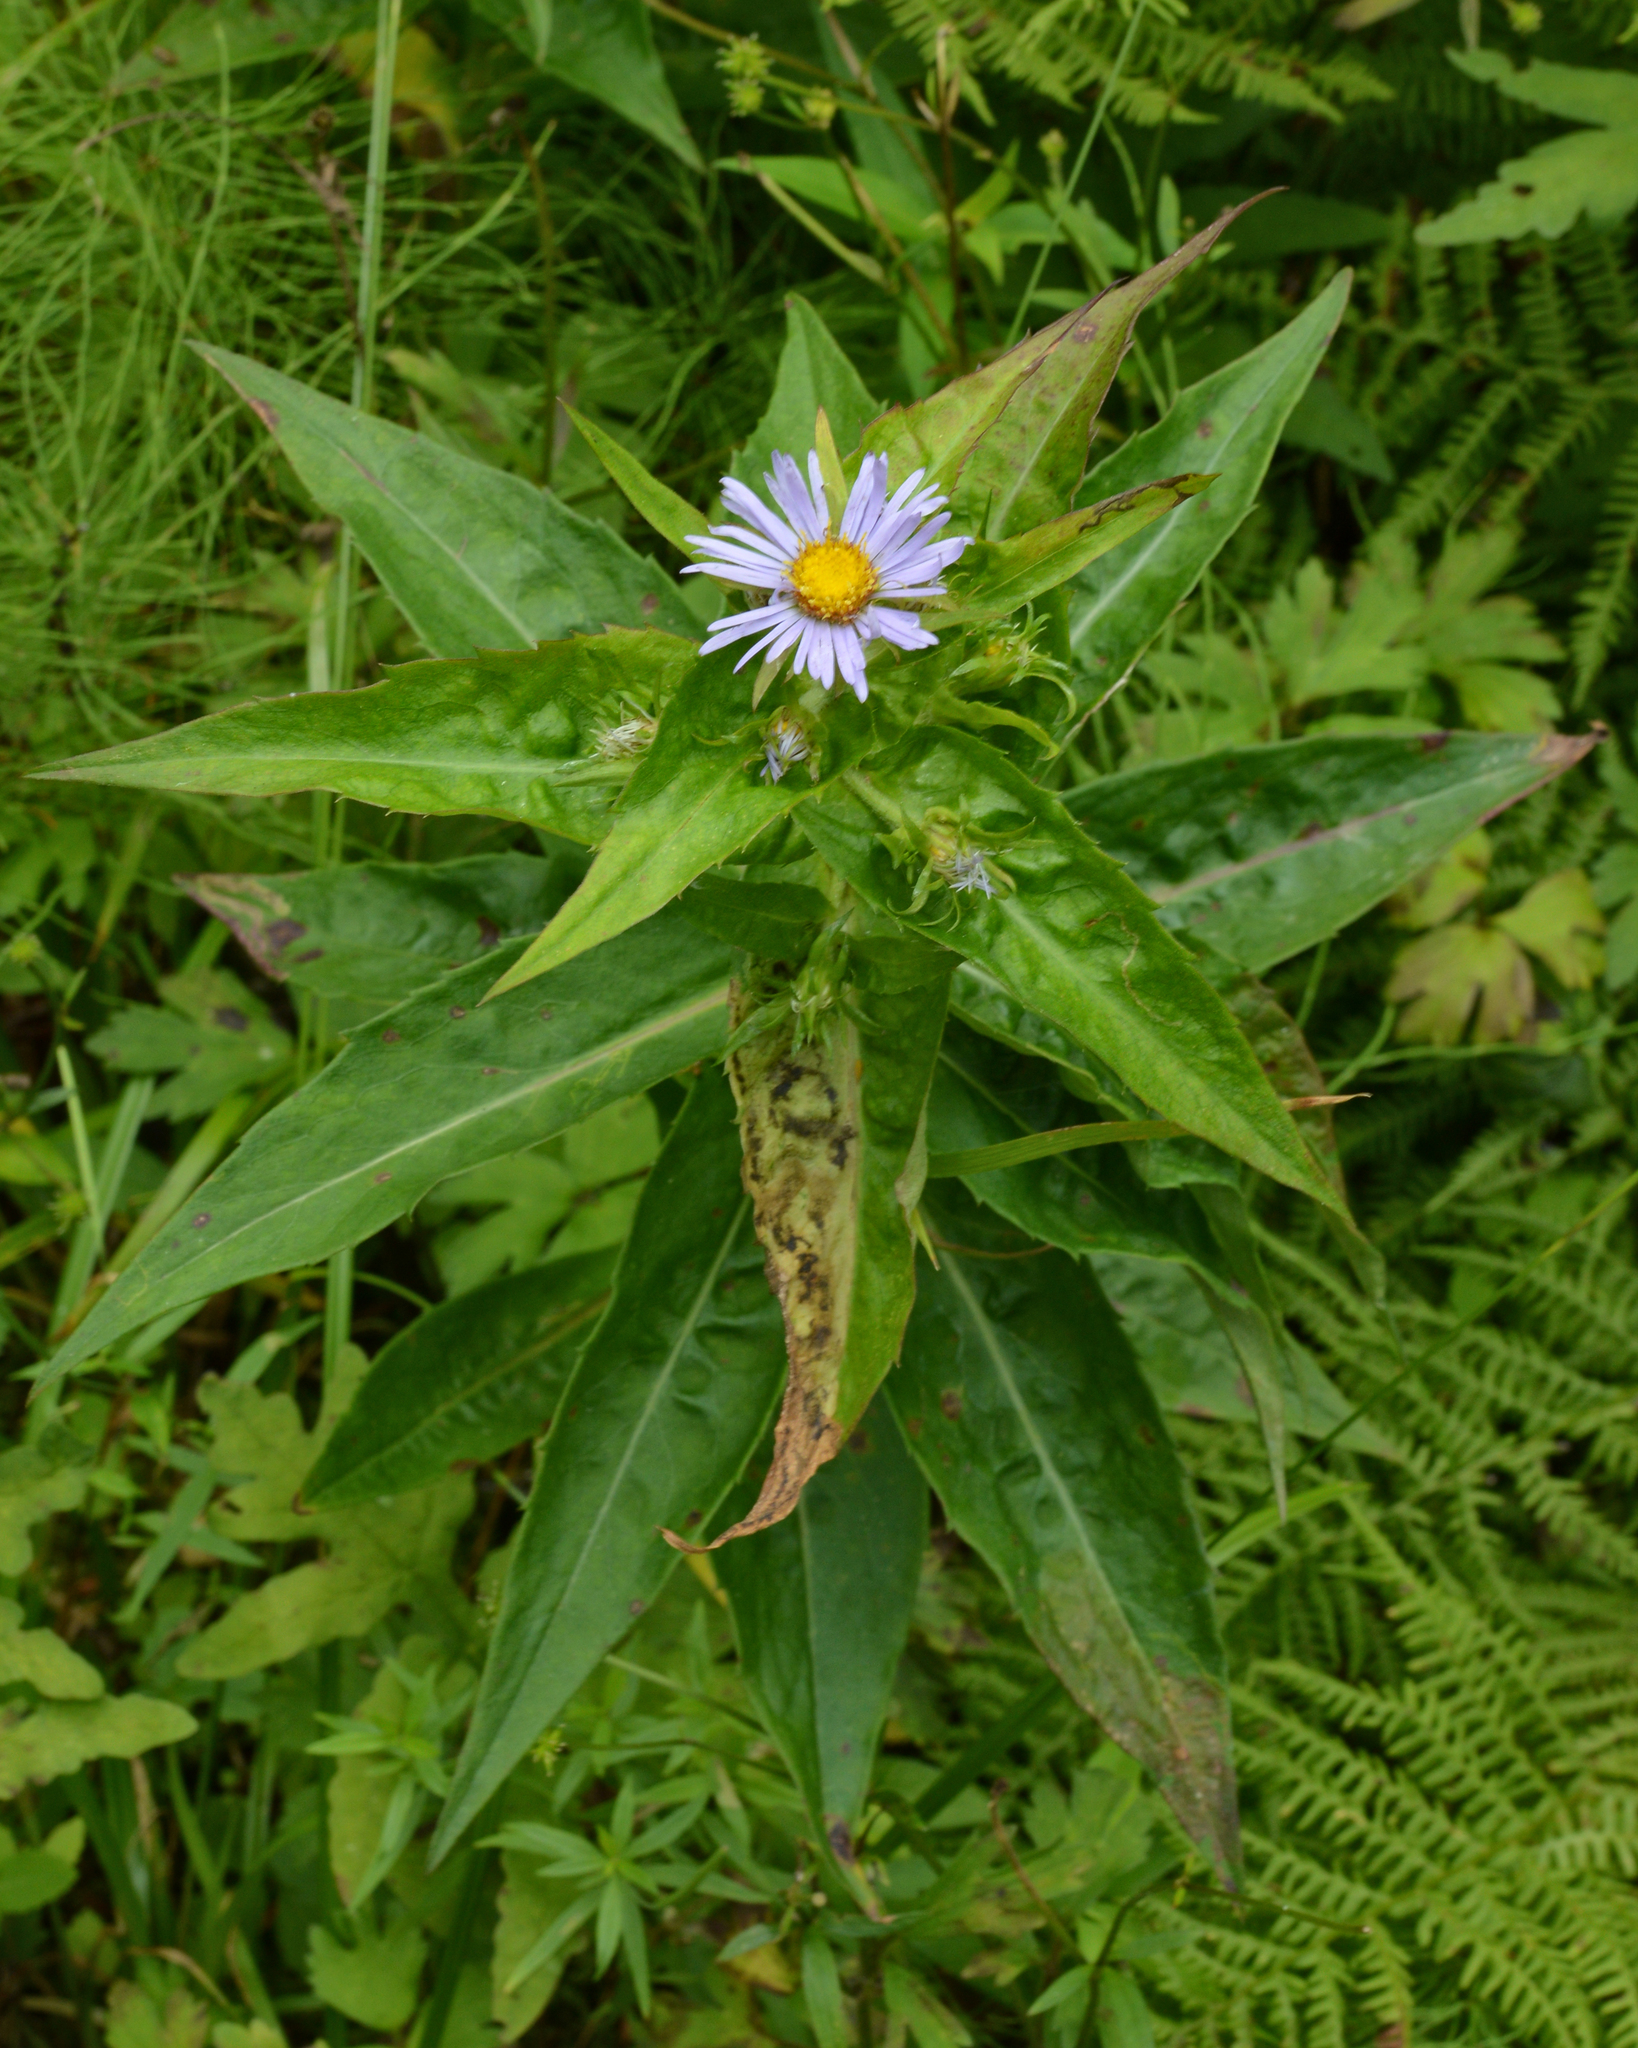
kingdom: Plantae
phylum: Tracheophyta
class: Magnoliopsida
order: Asterales
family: Asteraceae
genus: Symphyotrichum
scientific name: Symphyotrichum puniceum
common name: Bog aster
